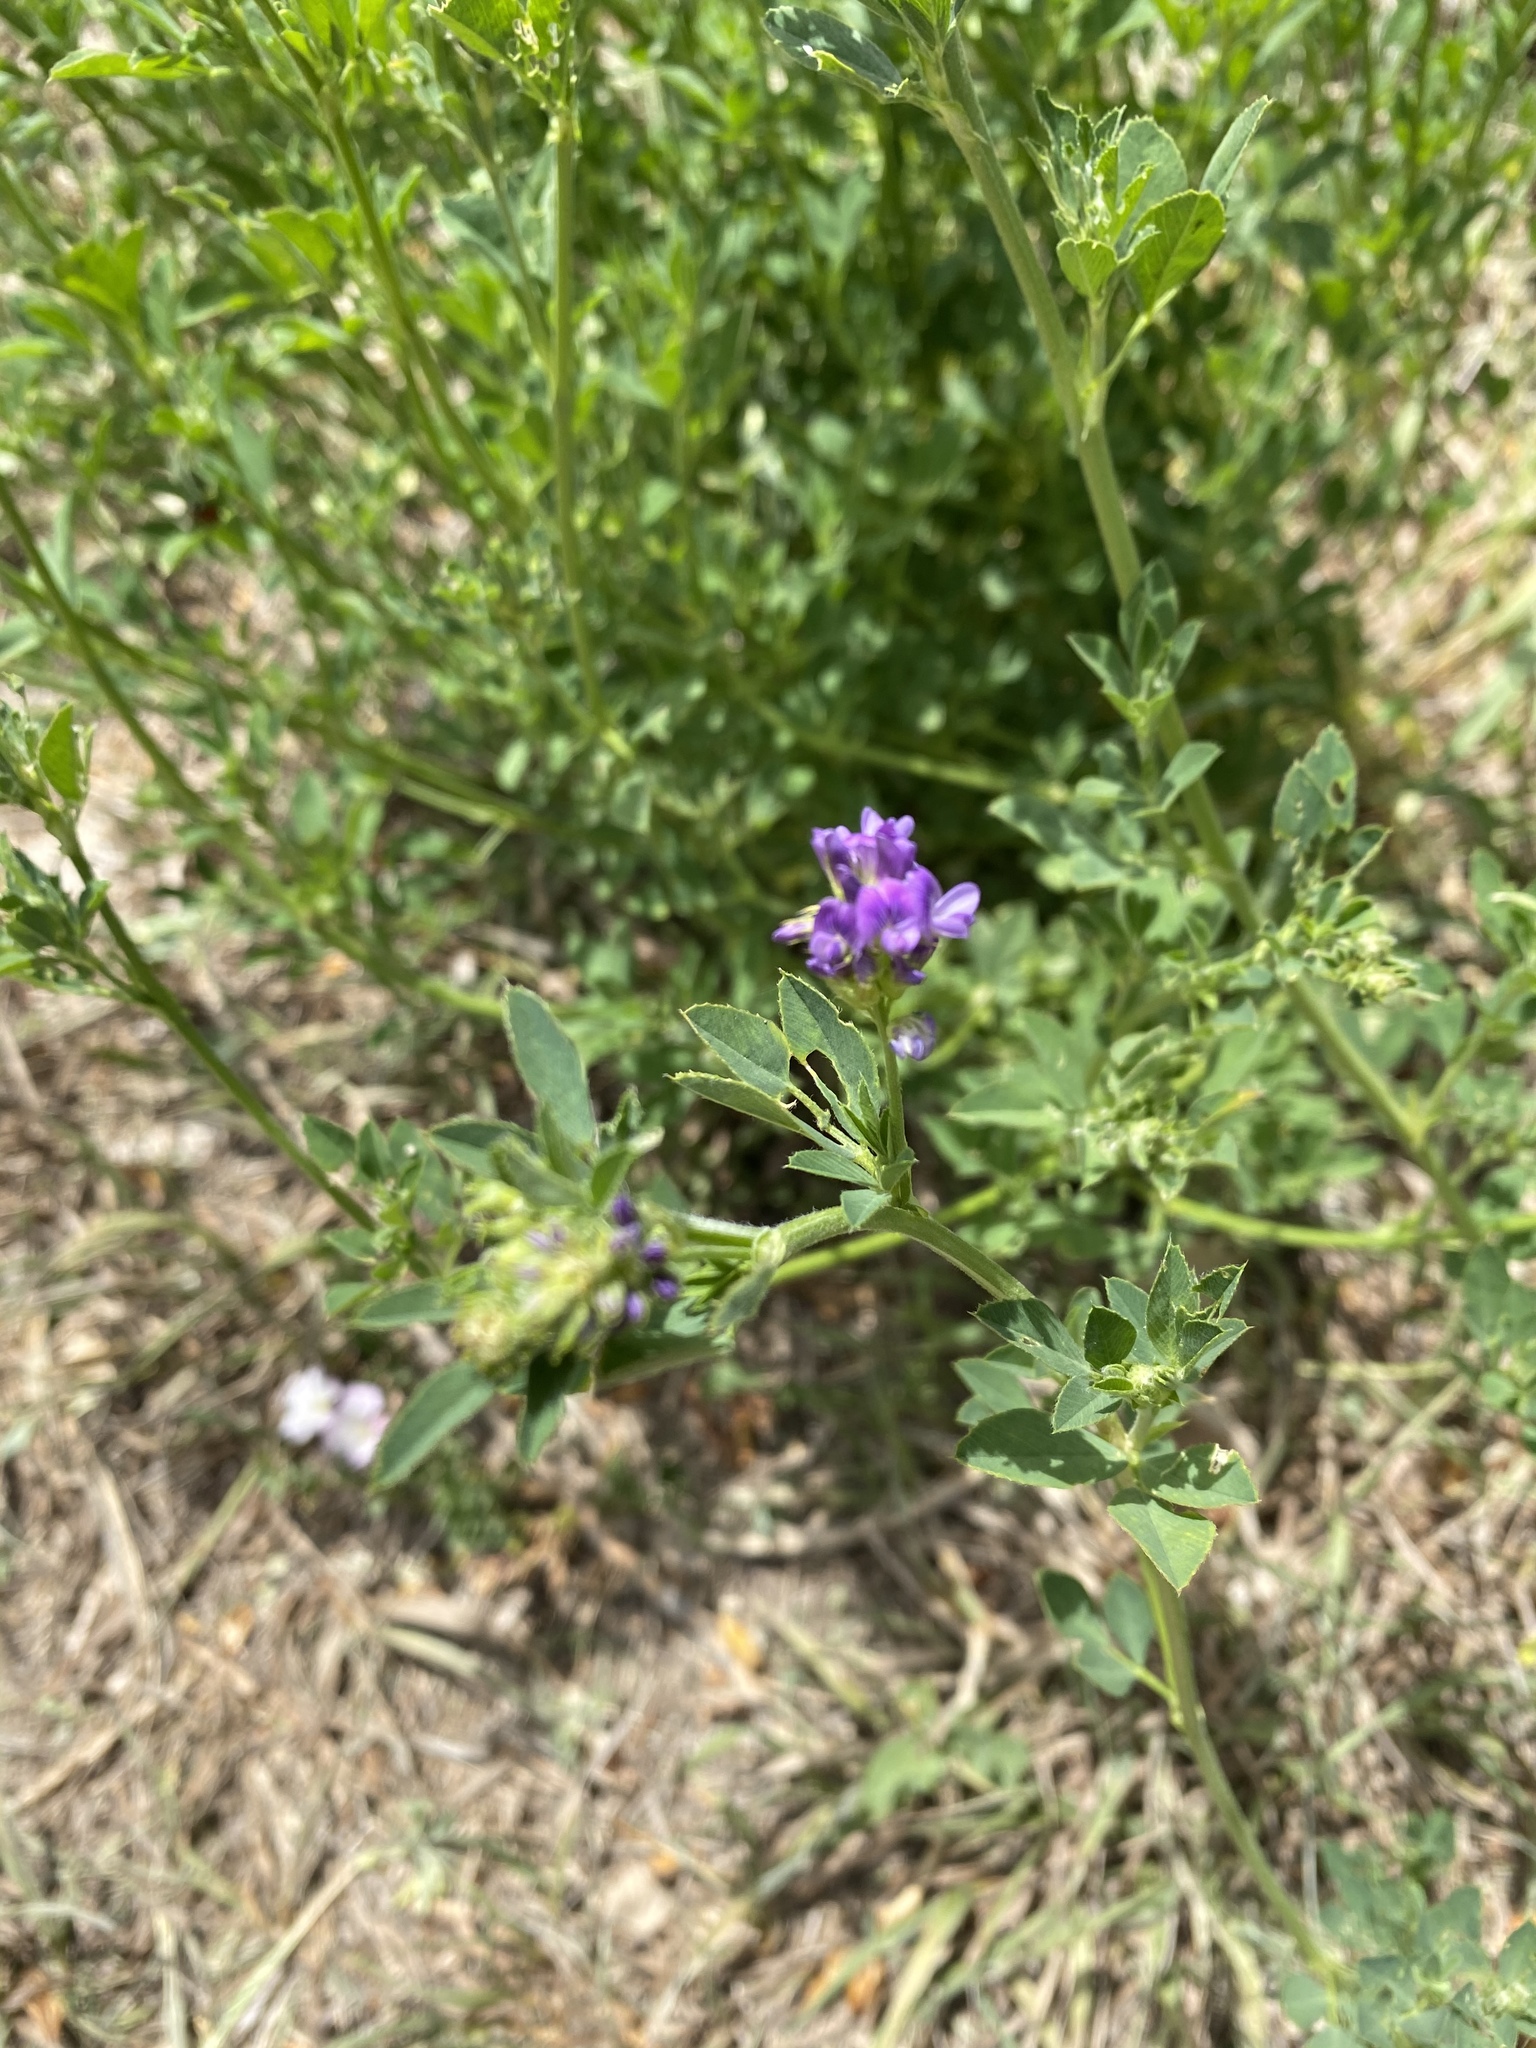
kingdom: Plantae
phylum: Tracheophyta
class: Magnoliopsida
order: Fabales
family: Fabaceae
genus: Medicago
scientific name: Medicago sativa
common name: Alfalfa
